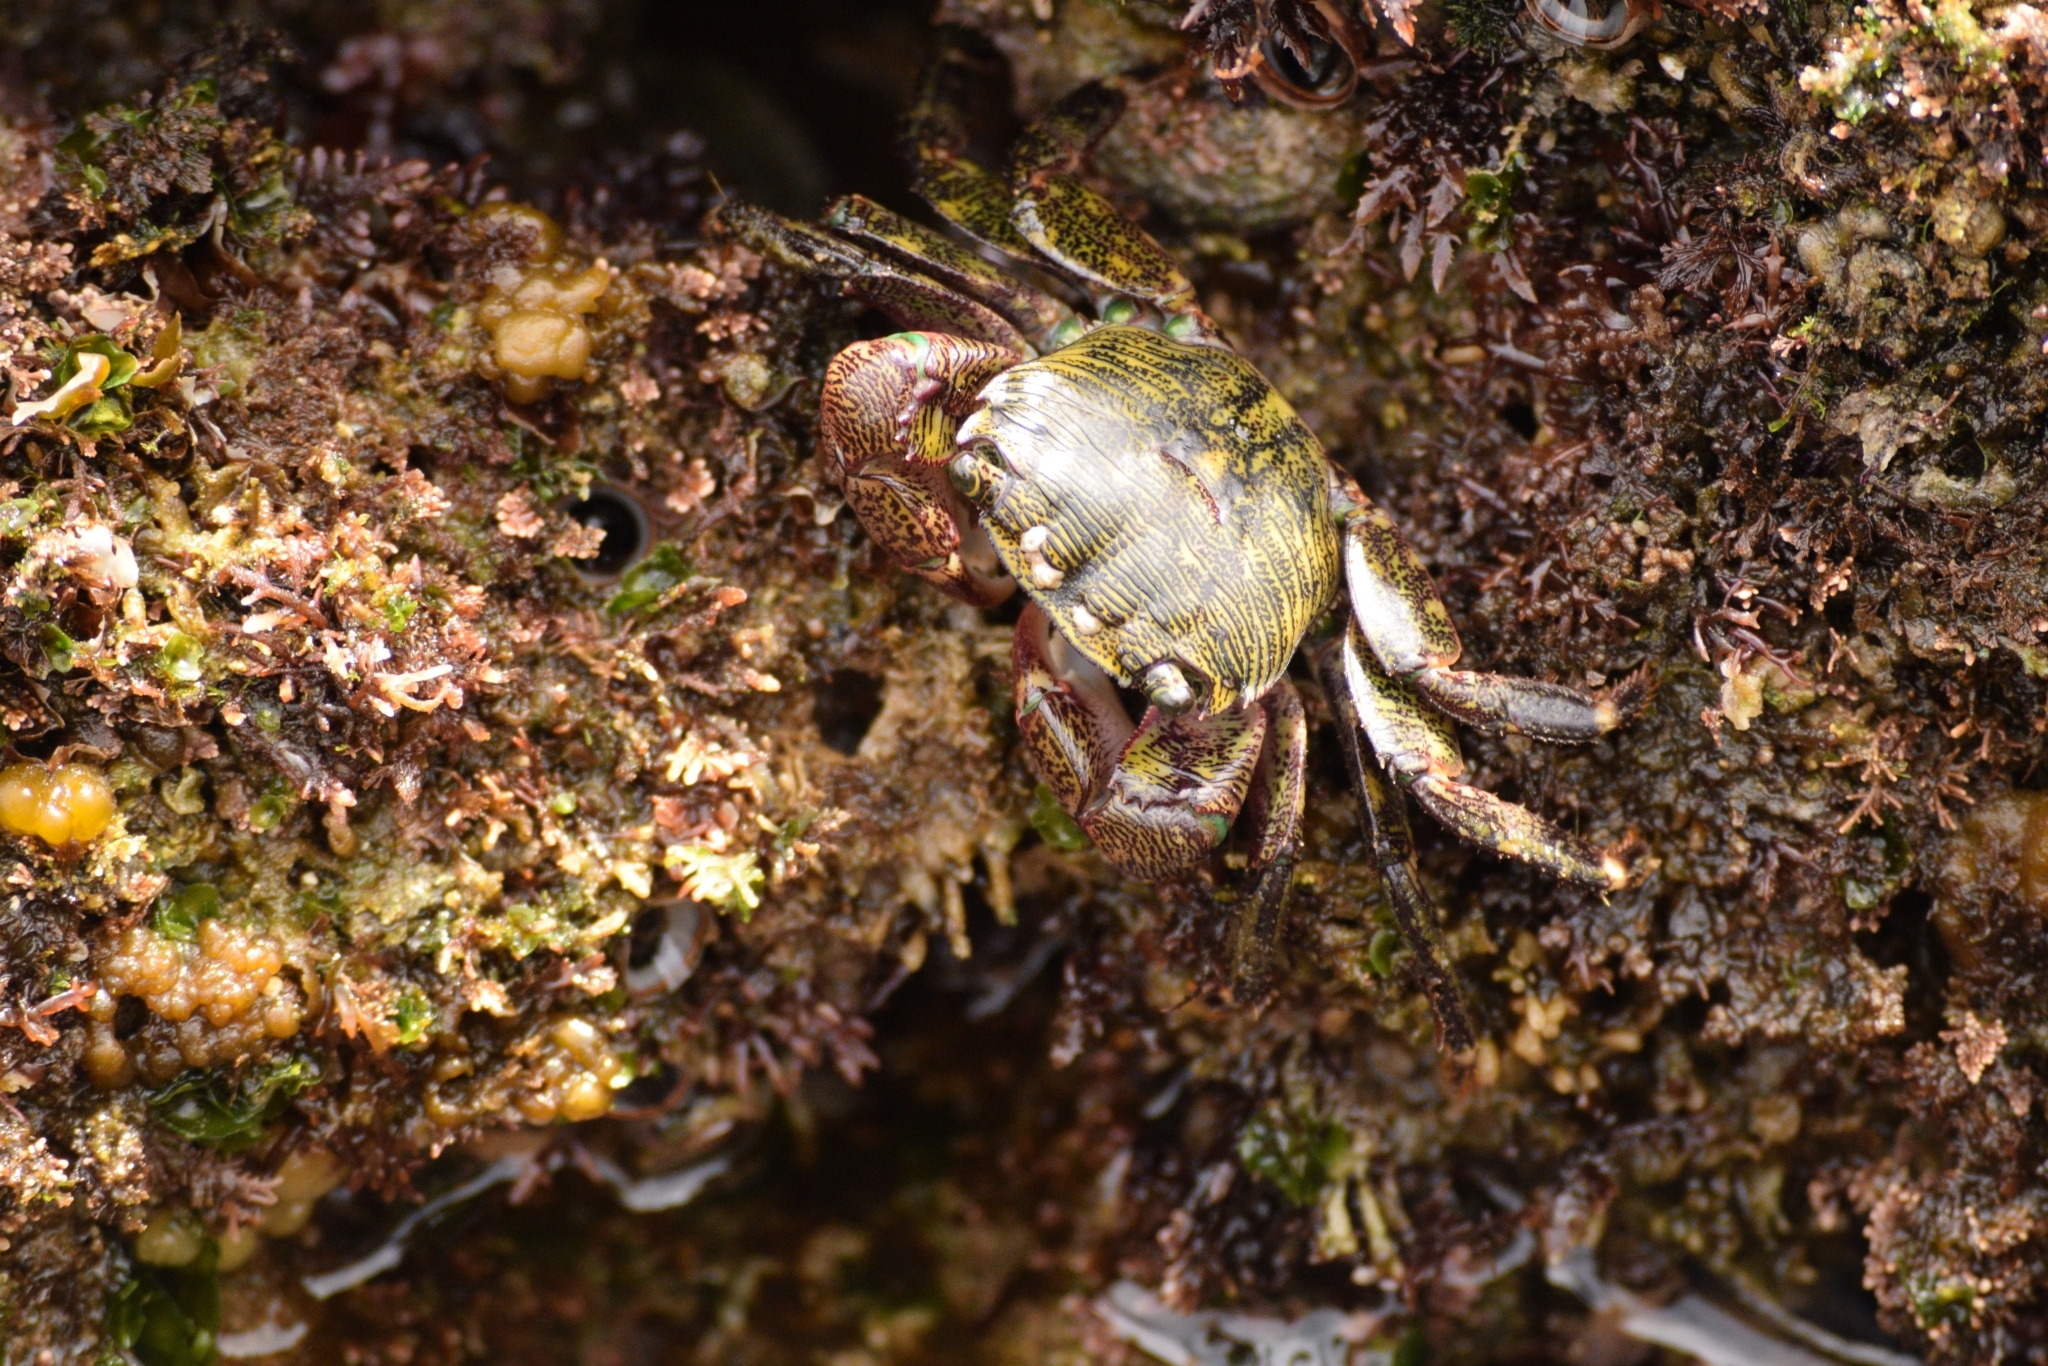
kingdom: Animalia
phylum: Arthropoda
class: Malacostraca
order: Decapoda
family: Grapsidae
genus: Pachygrapsus
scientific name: Pachygrapsus crassipes
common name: Striped shore crab
